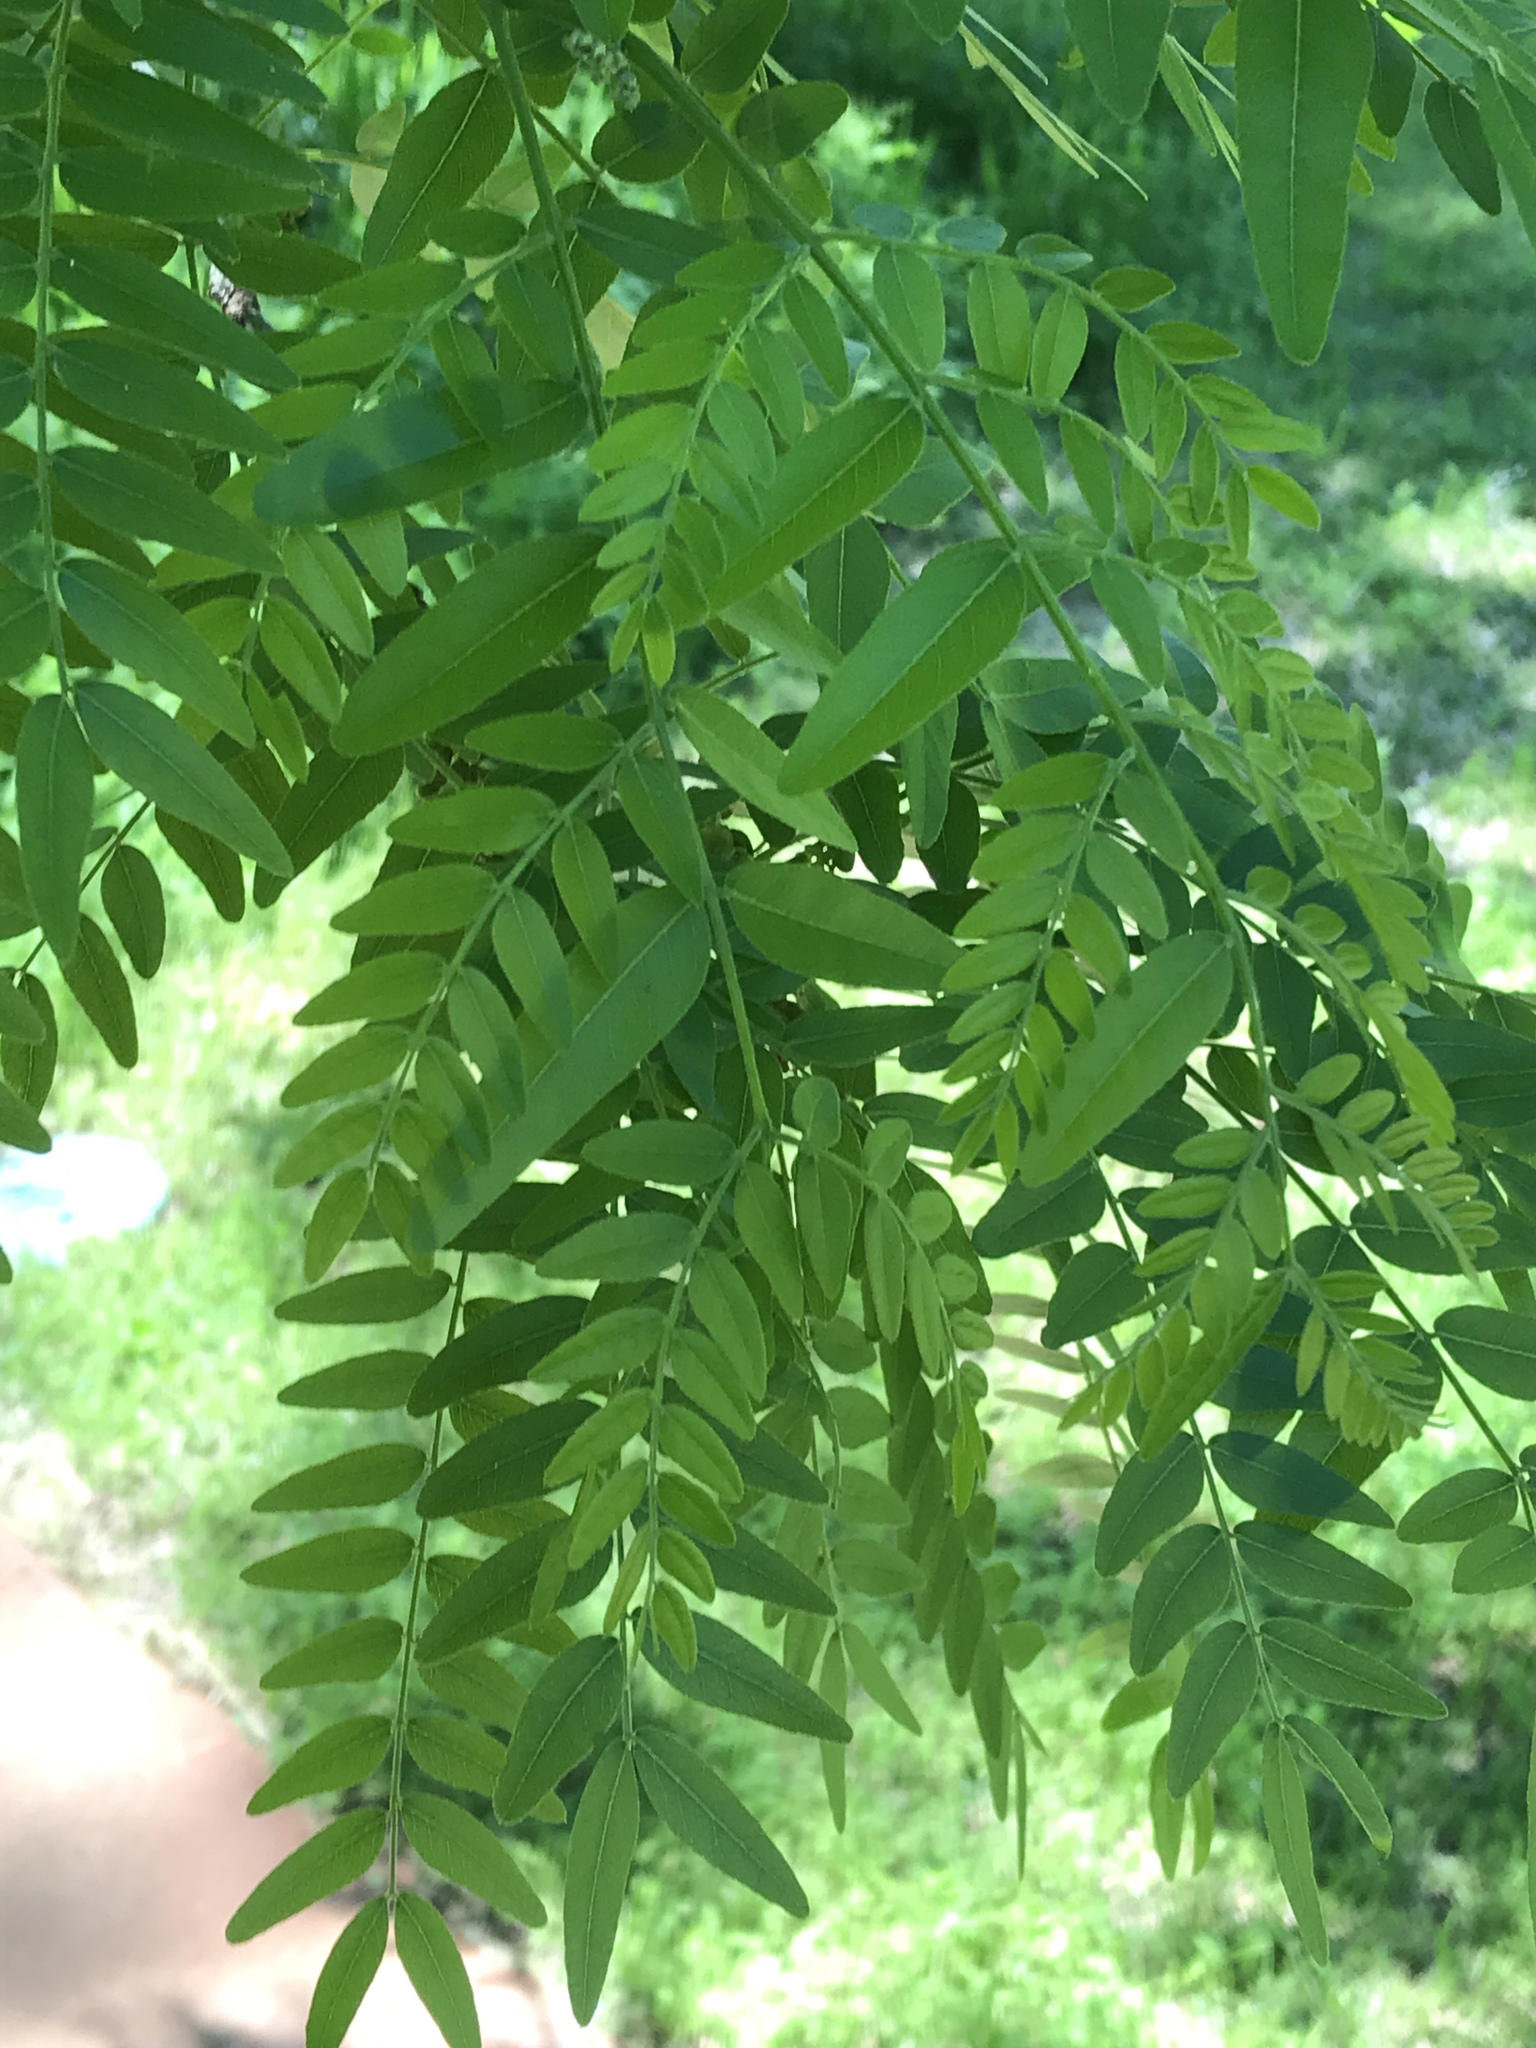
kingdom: Plantae
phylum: Tracheophyta
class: Magnoliopsida
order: Fabales
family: Fabaceae
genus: Gleditsia
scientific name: Gleditsia triacanthos
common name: Common honeylocust
